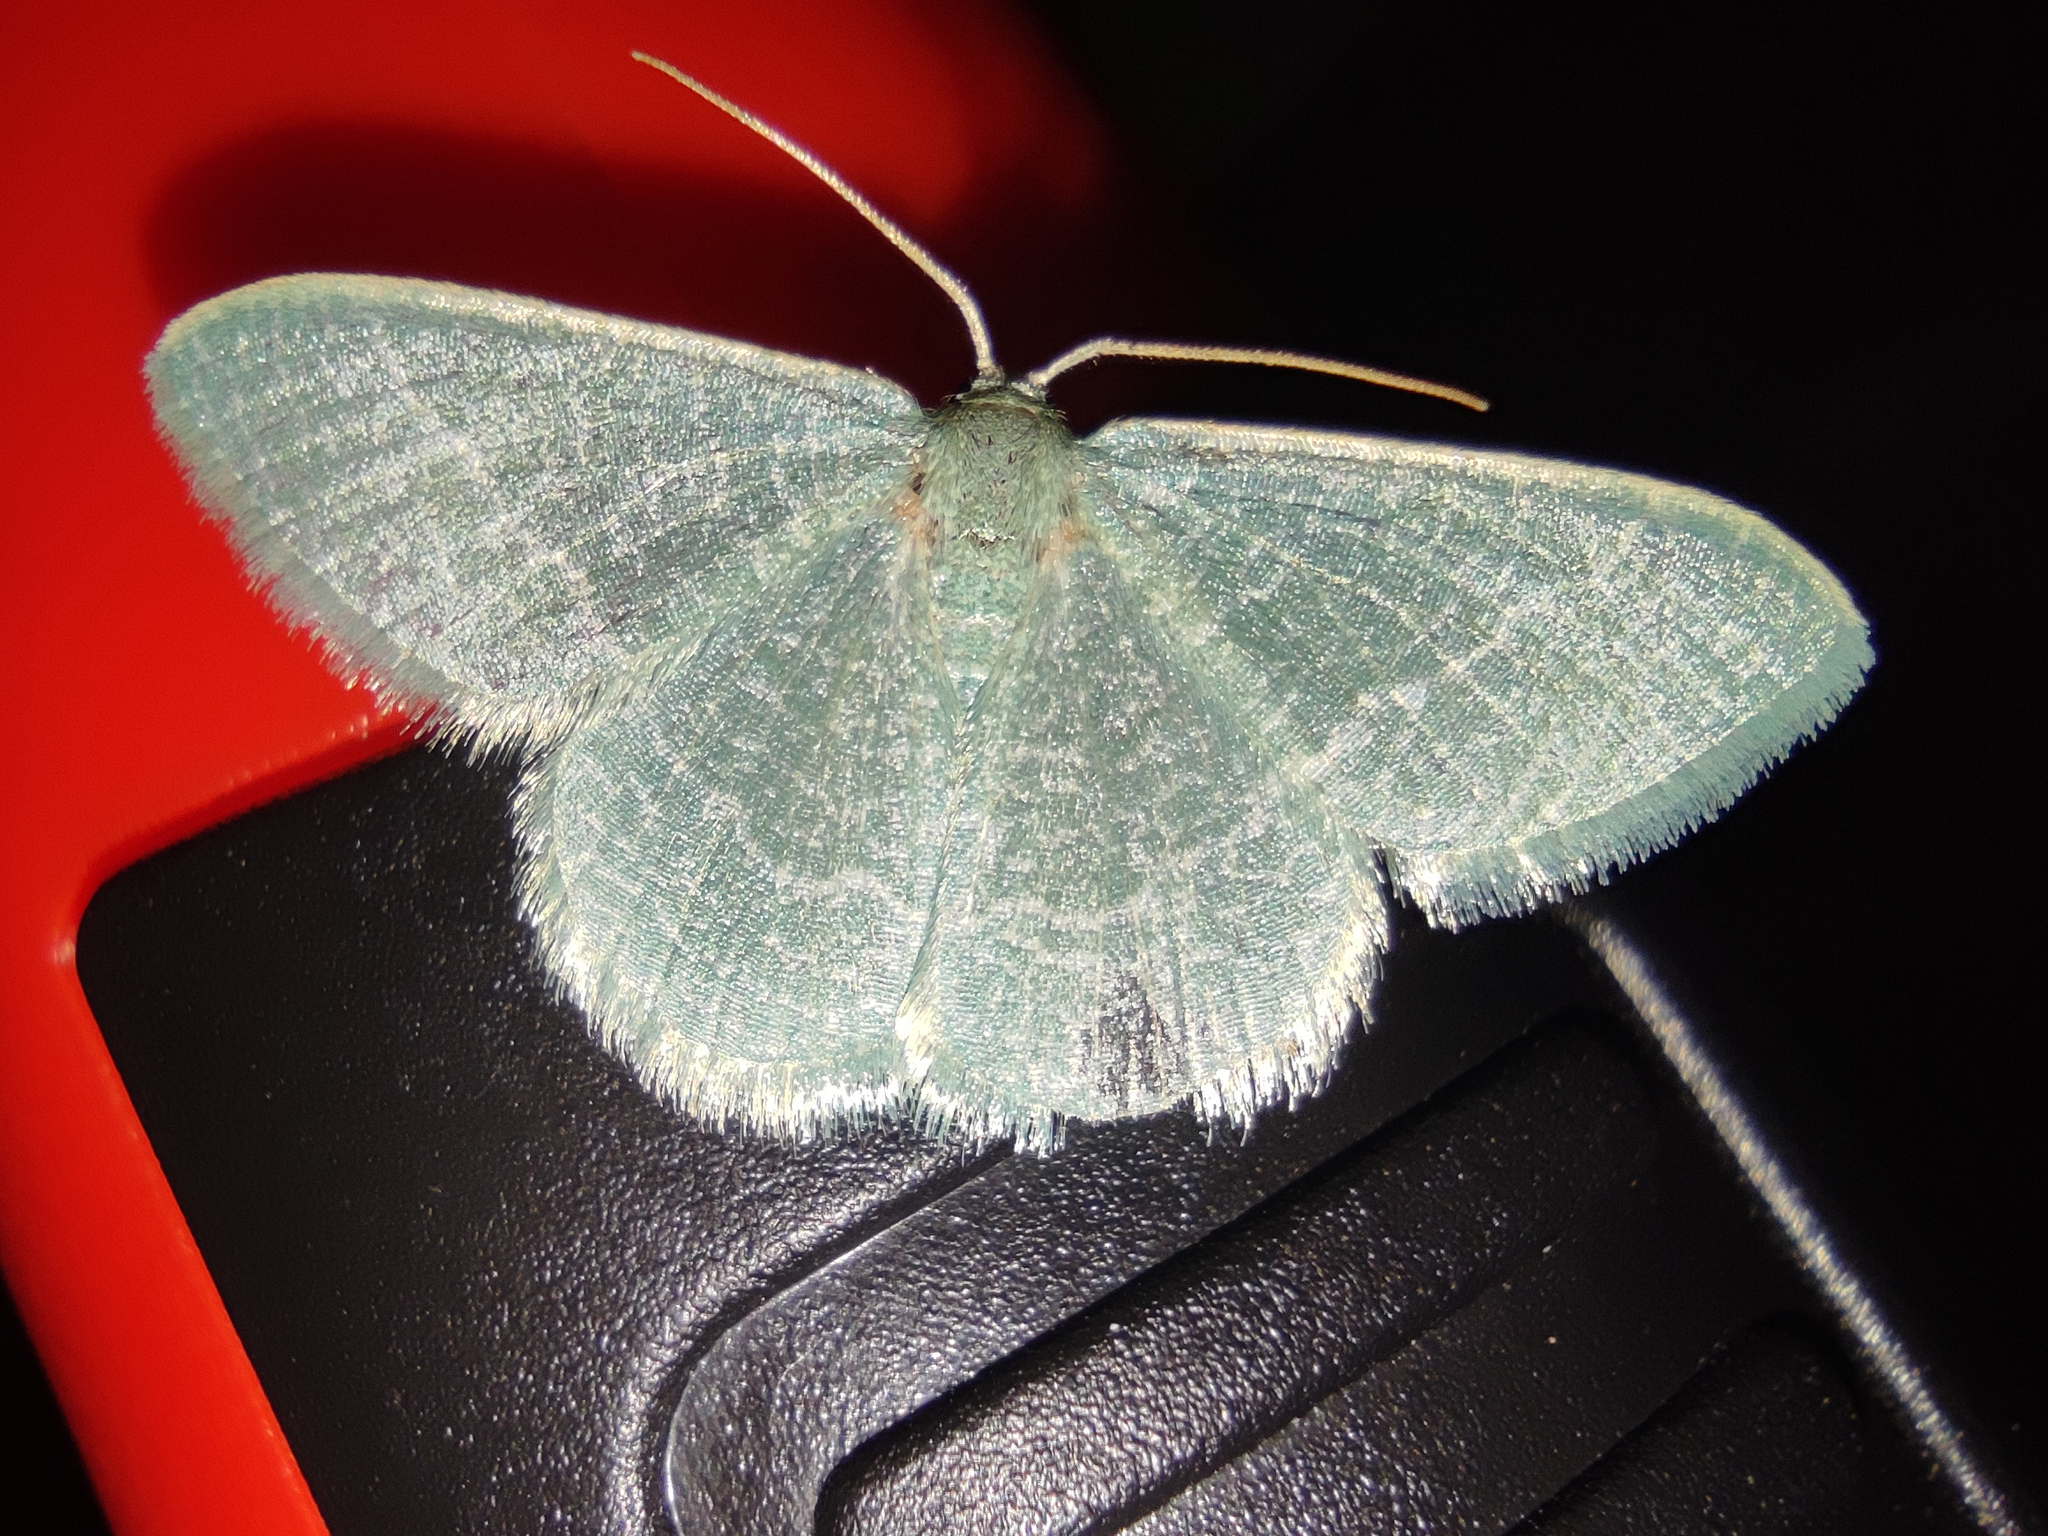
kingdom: Animalia
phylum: Arthropoda
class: Insecta
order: Lepidoptera
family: Geometridae
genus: Chlorissa
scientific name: Chlorissa etruscaria
